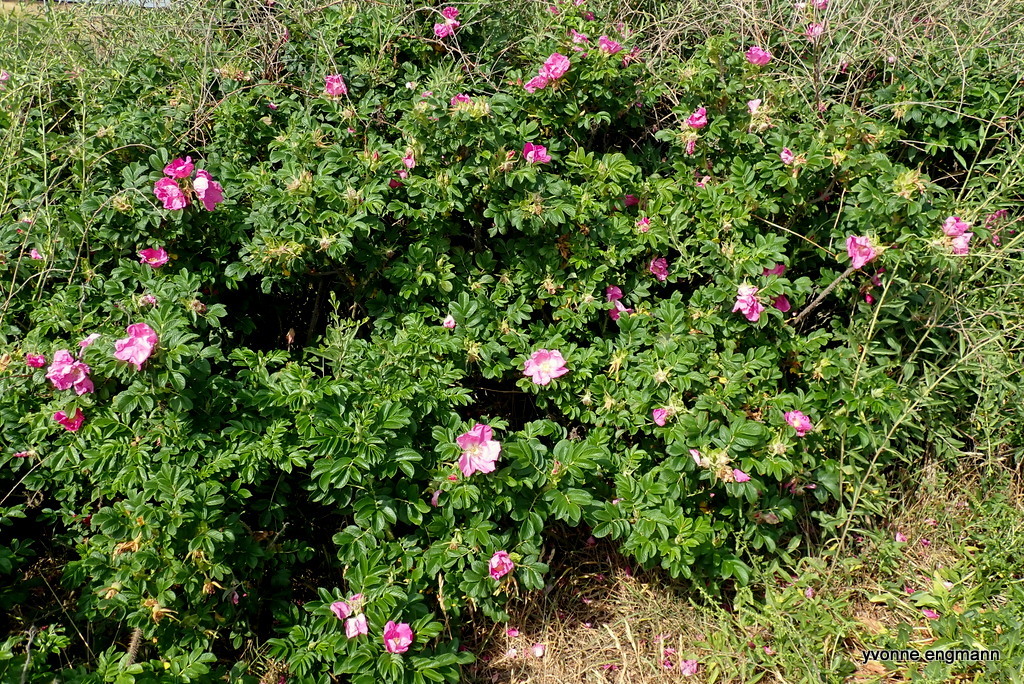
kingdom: Plantae
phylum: Tracheophyta
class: Magnoliopsida
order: Rosales
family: Rosaceae
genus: Rosa
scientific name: Rosa rugosa
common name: Japanese rose
